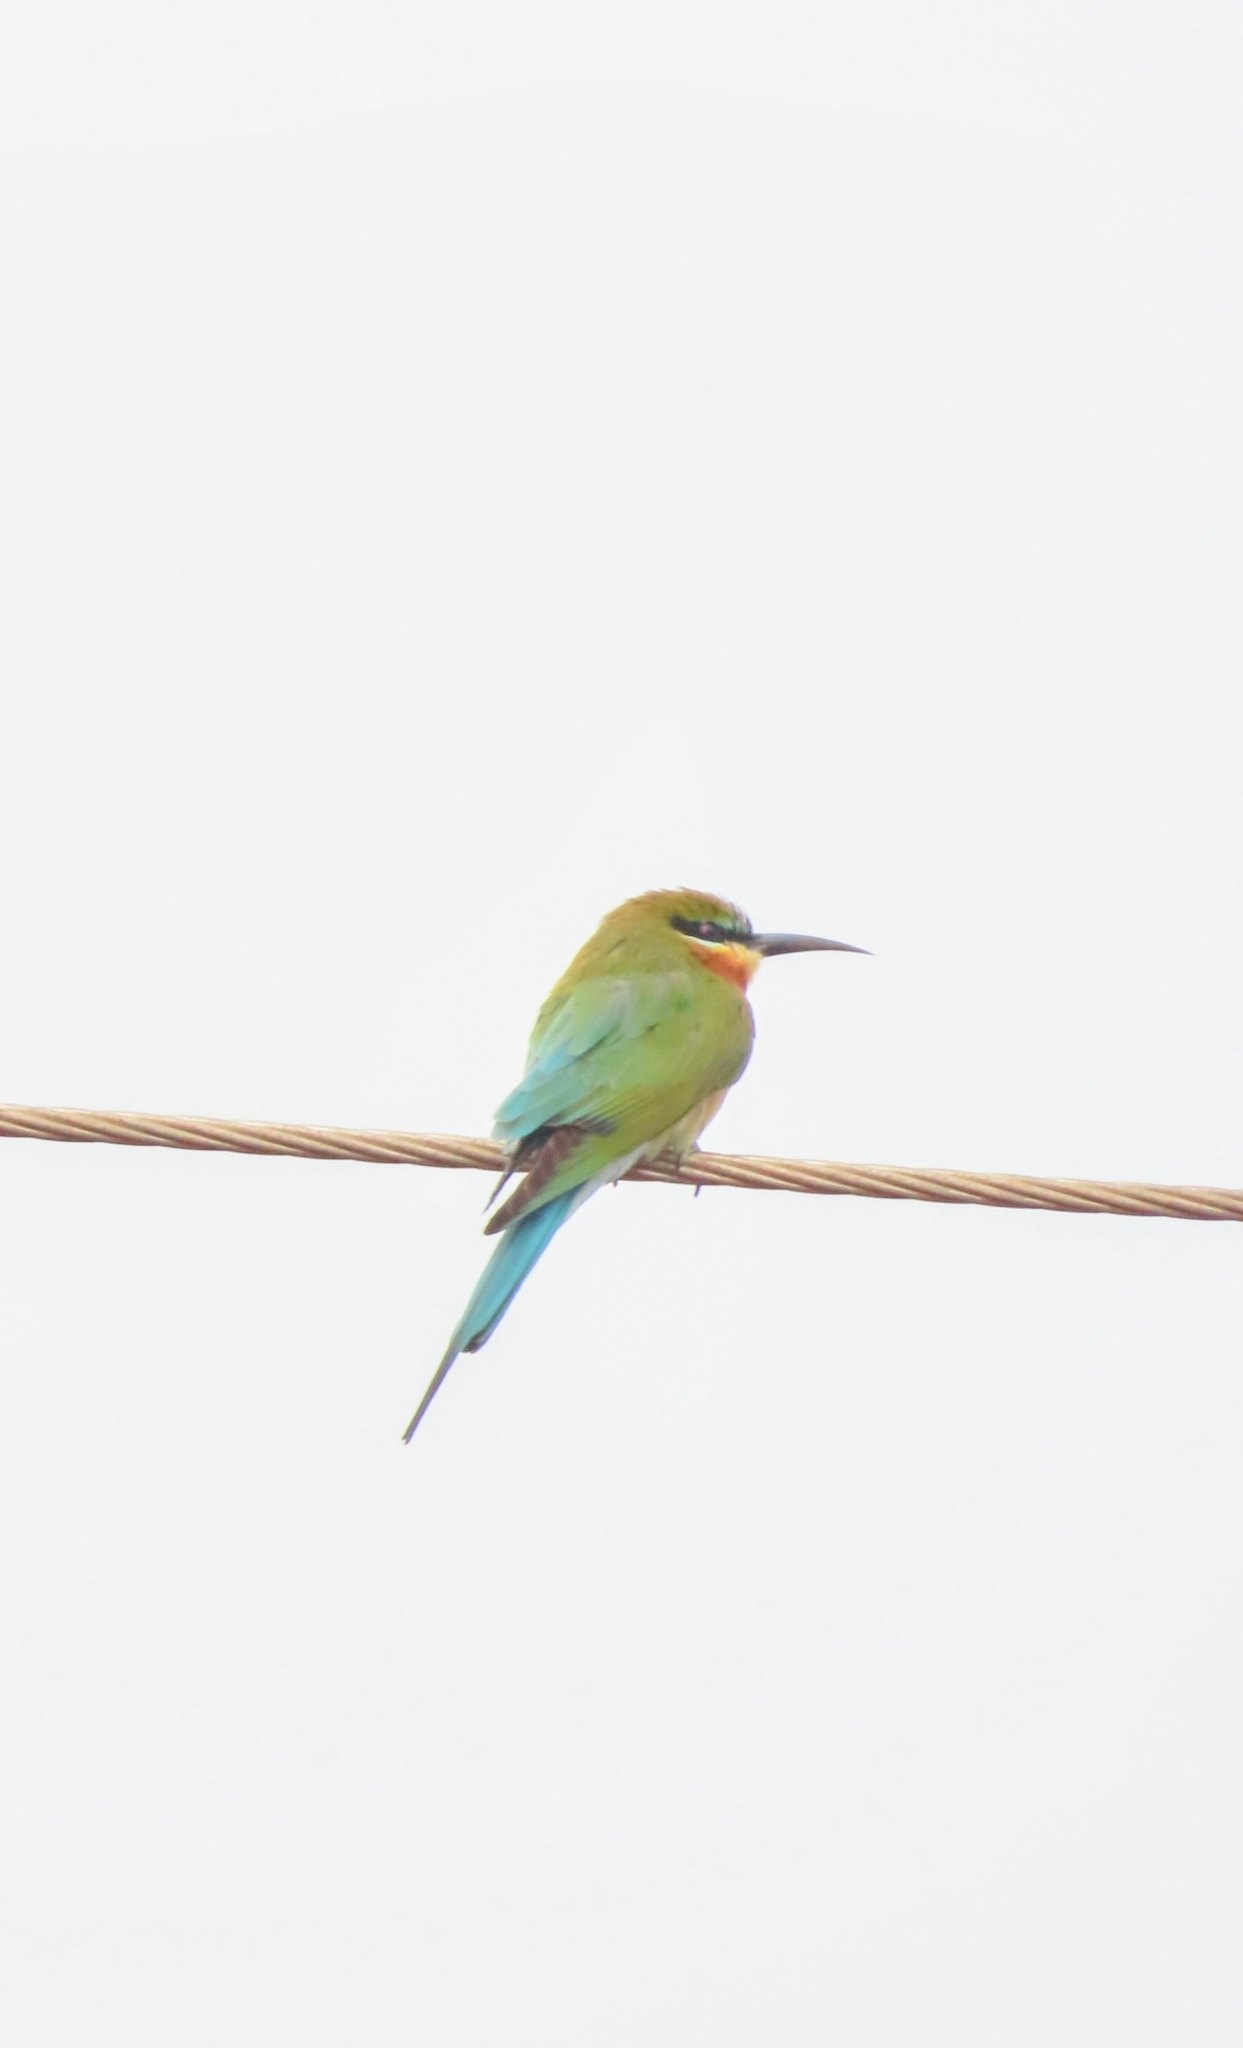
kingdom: Animalia
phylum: Chordata
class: Aves
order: Coraciiformes
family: Meropidae
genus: Merops
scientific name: Merops philippinus
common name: Blue-tailed bee-eater
